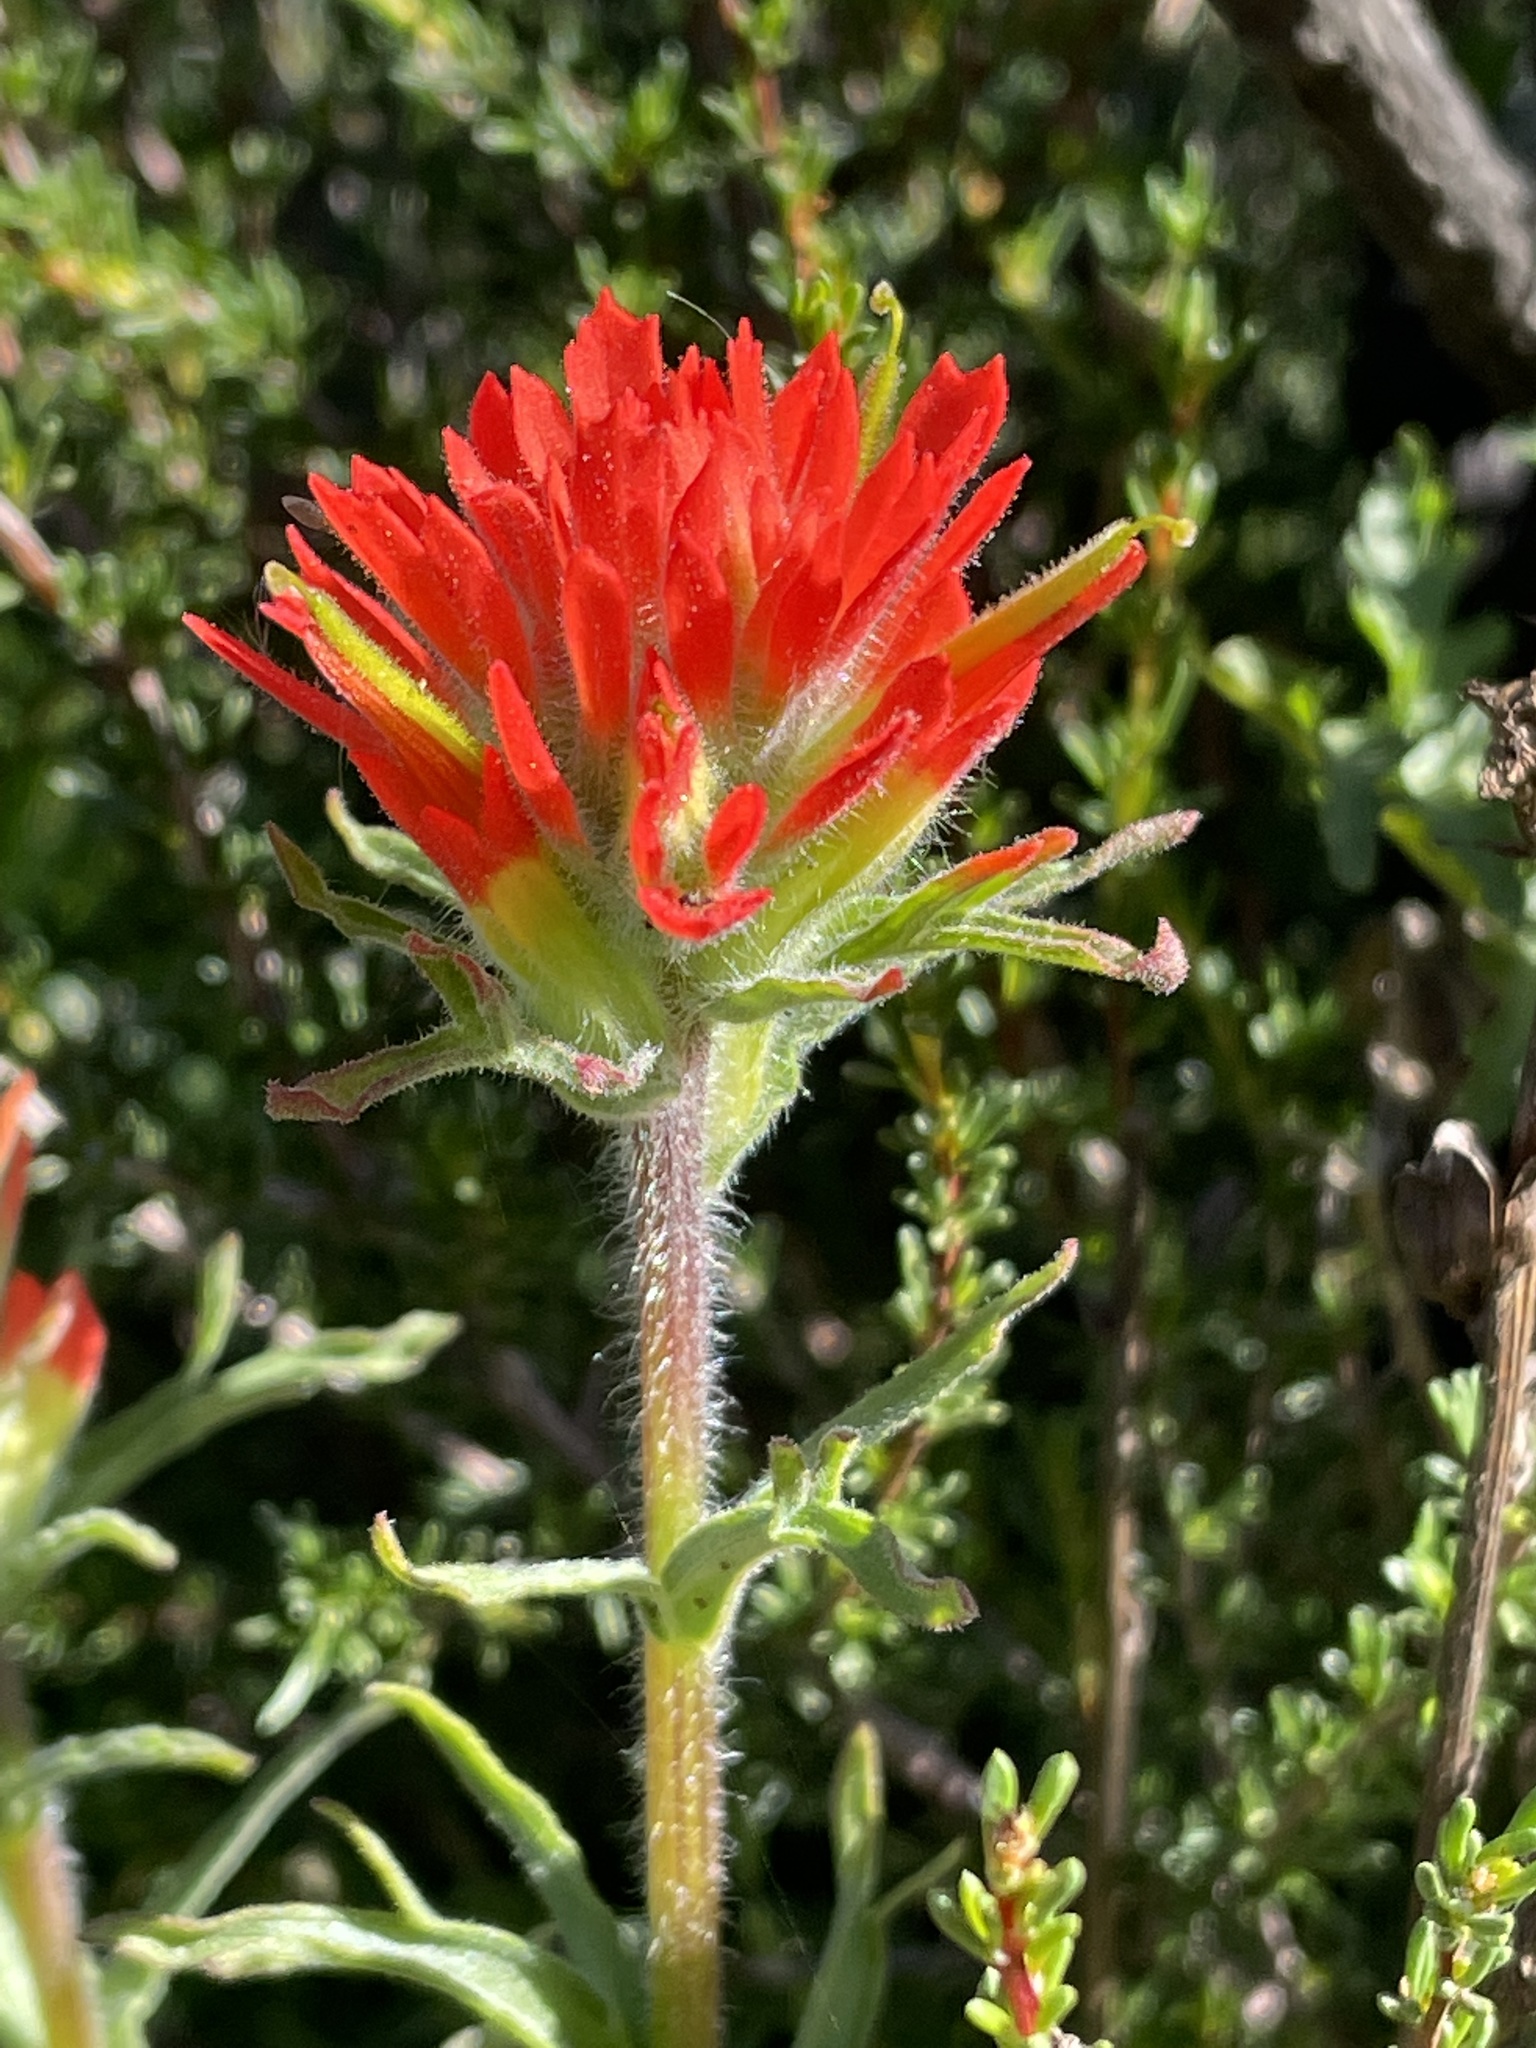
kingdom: Plantae
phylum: Tracheophyta
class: Magnoliopsida
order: Lamiales
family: Orobanchaceae
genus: Castilleja
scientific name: Castilleja affinis
